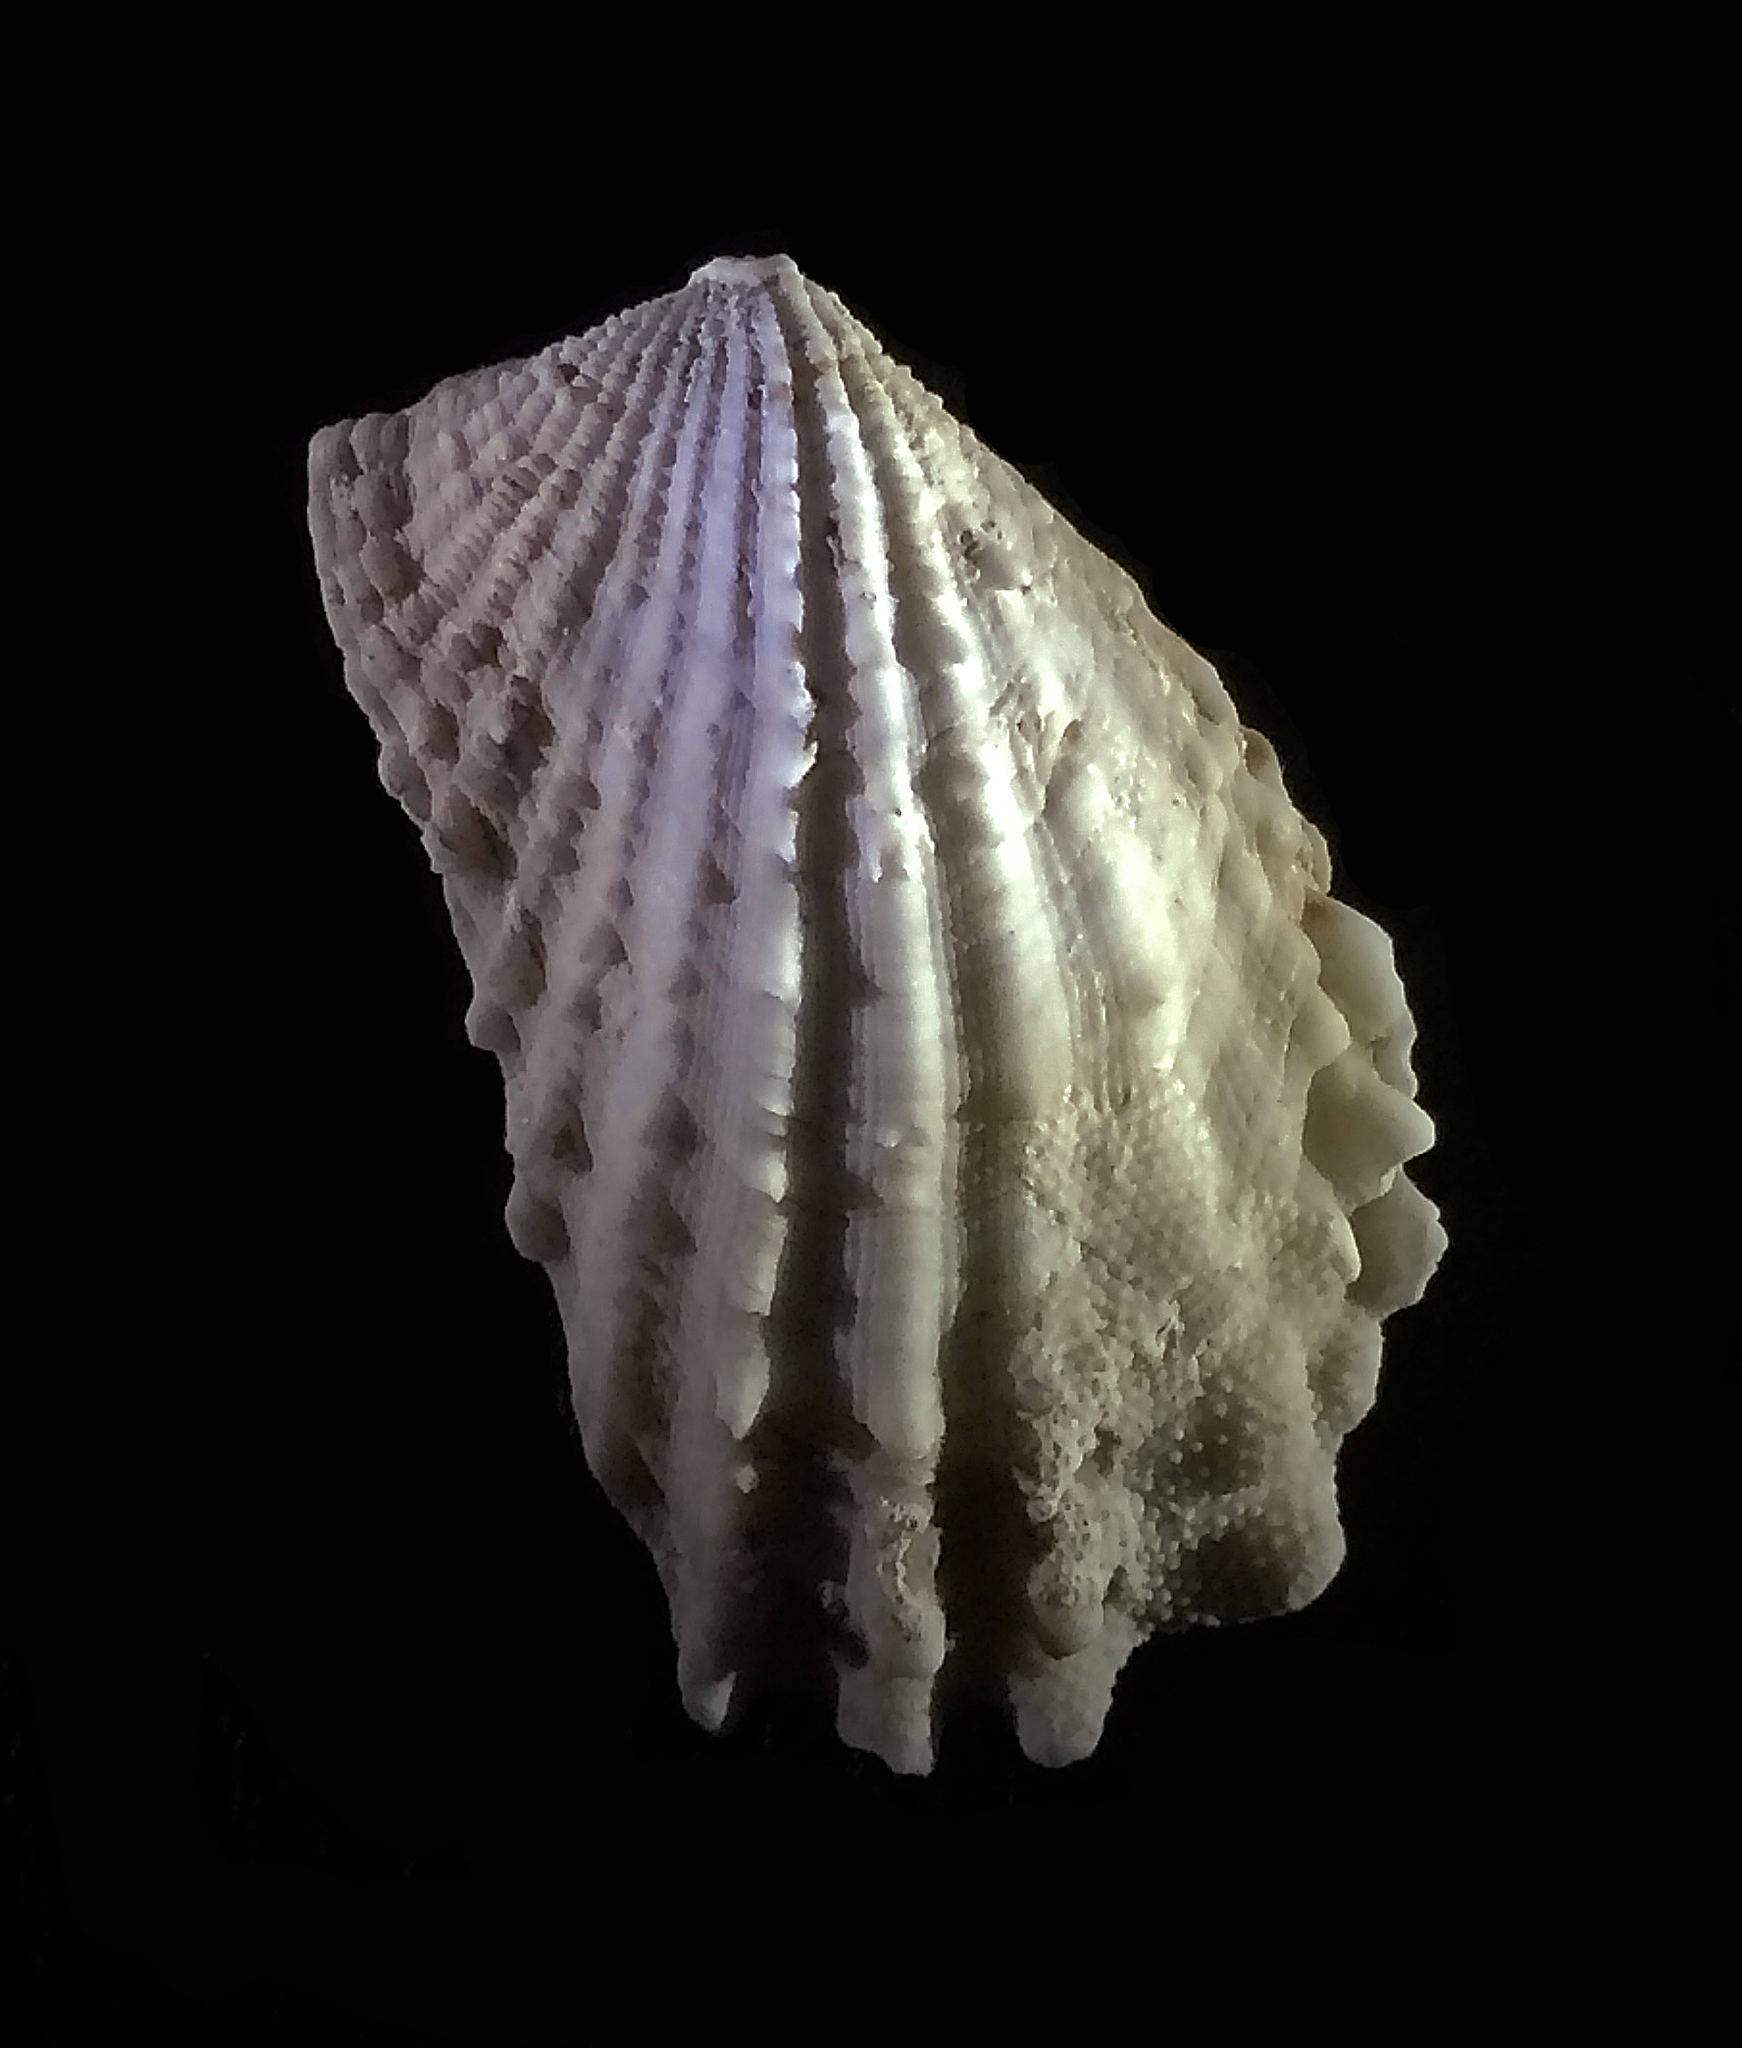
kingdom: Animalia
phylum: Mollusca
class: Bivalvia
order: Carditida
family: Carditidae
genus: Cardita
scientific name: Cardita calyculata
